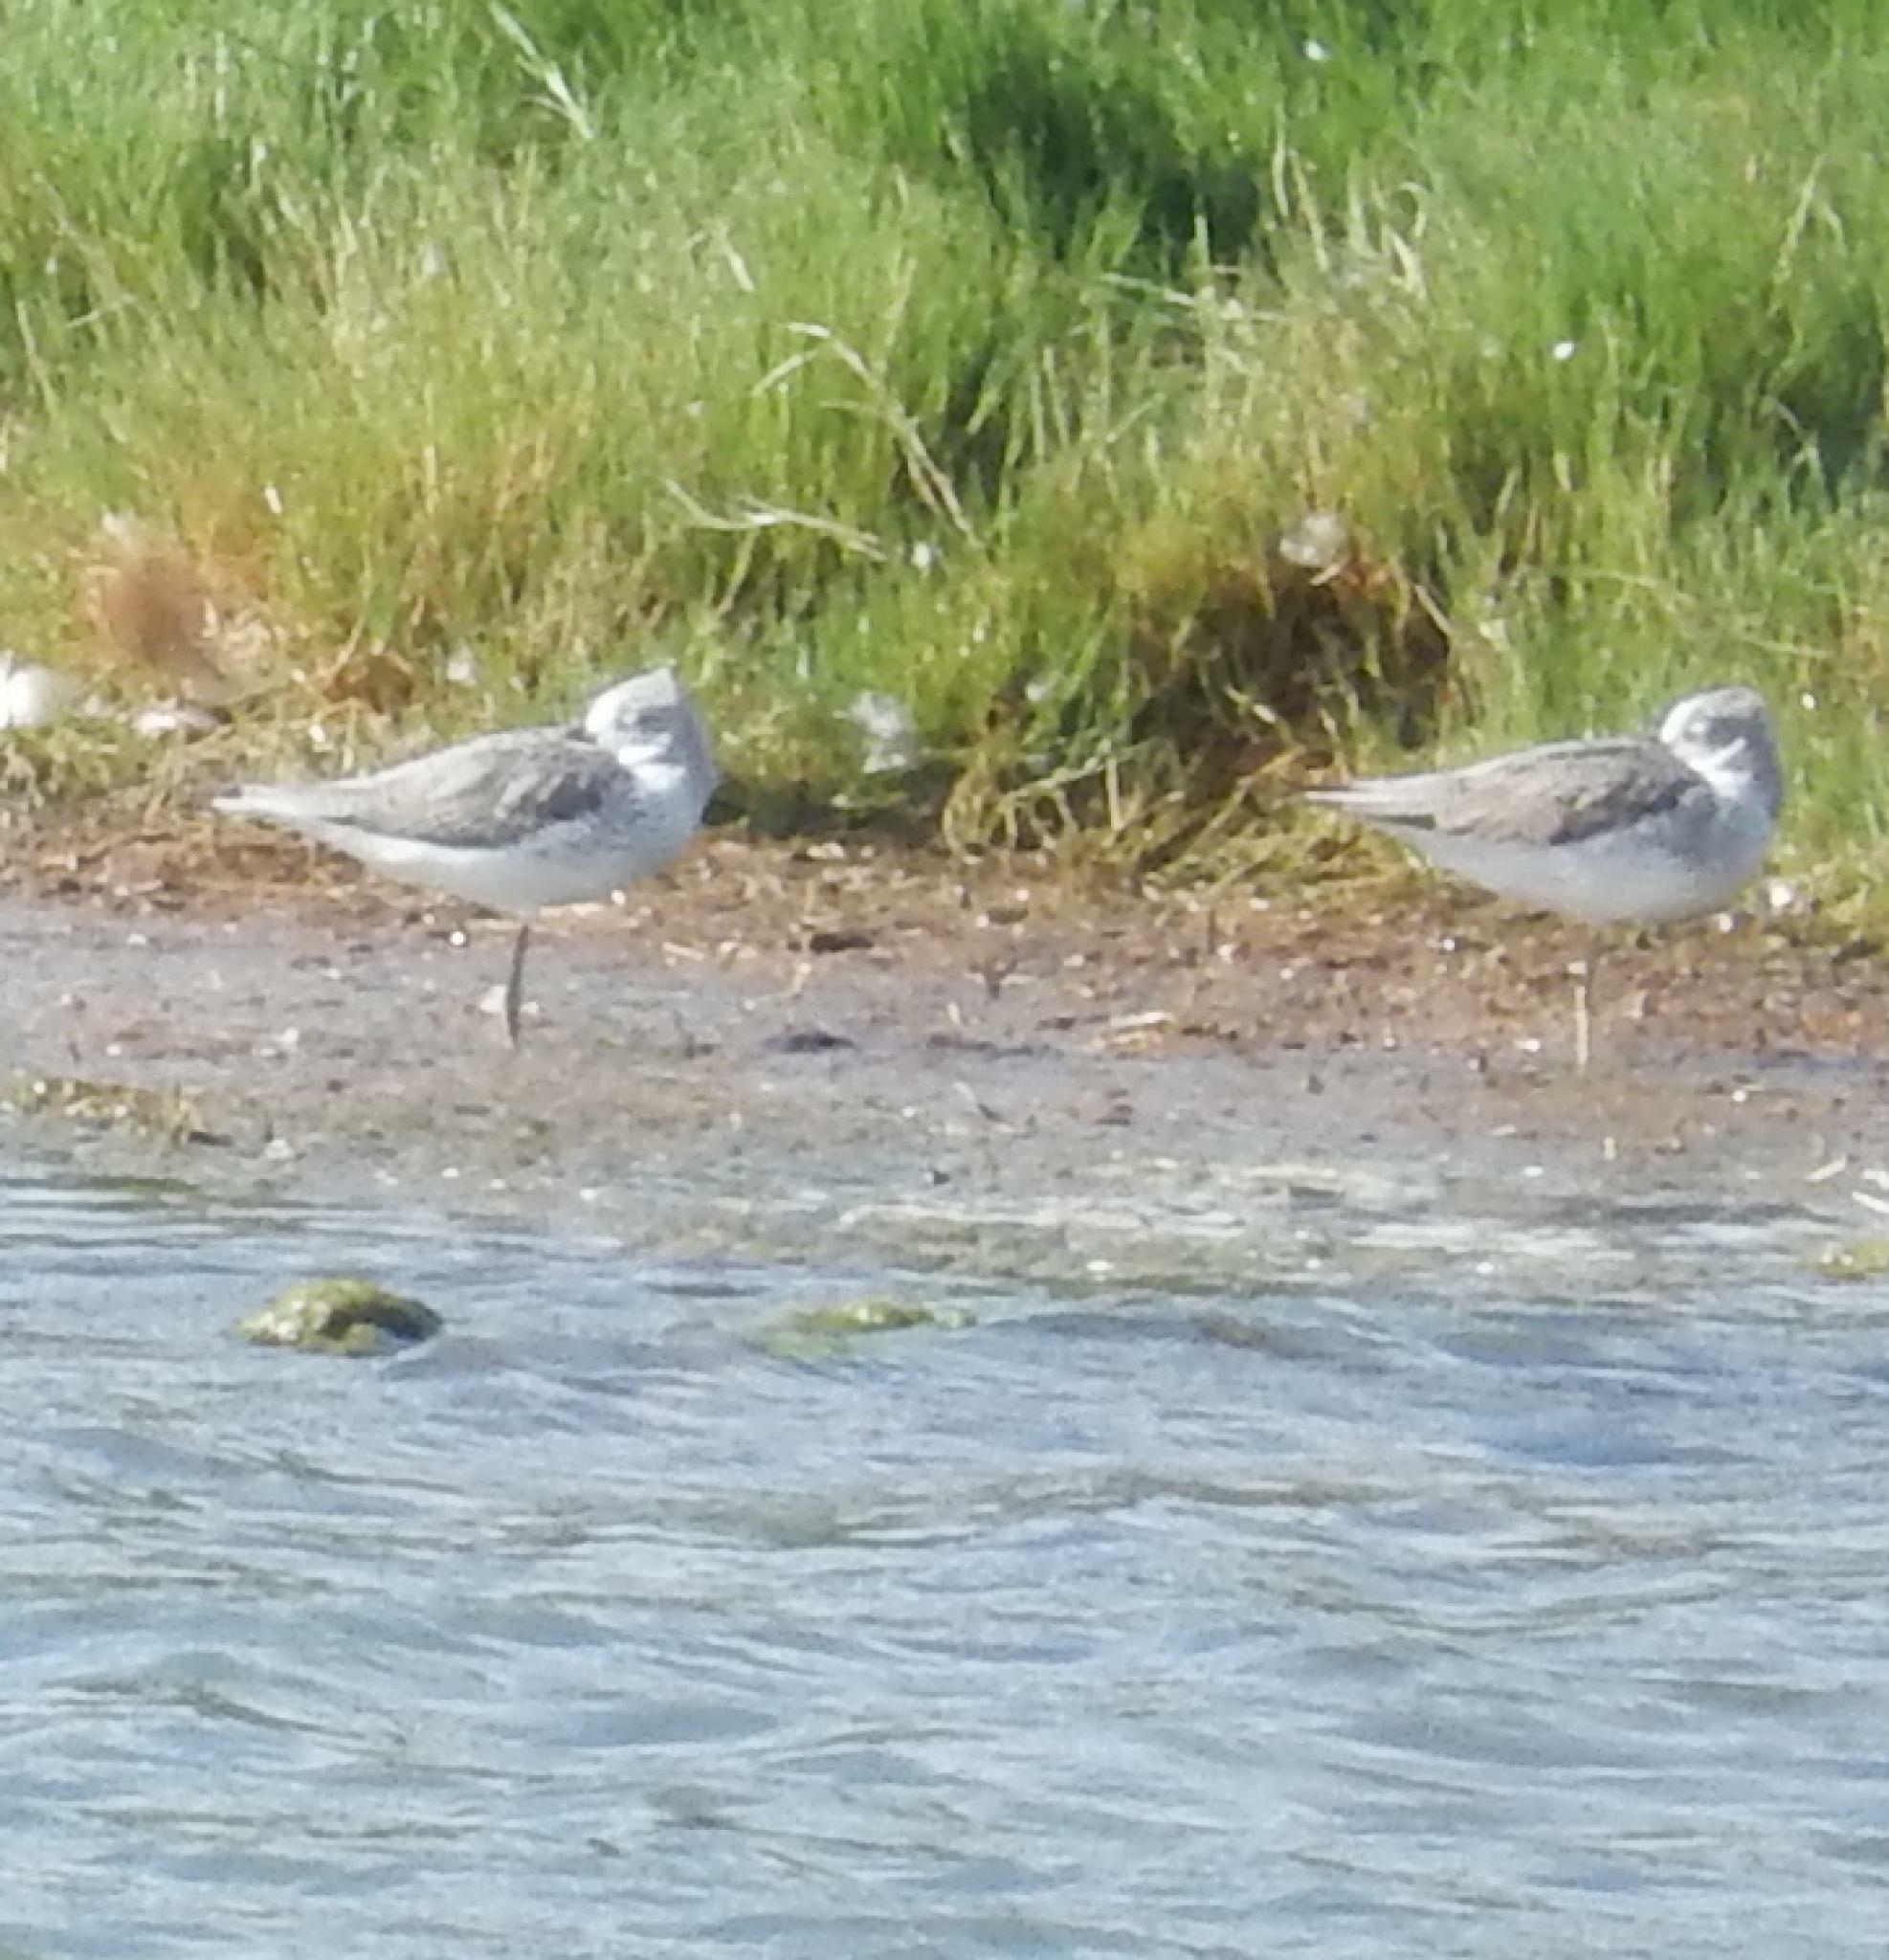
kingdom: Animalia
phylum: Chordata
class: Aves
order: Charadriiformes
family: Scolopacidae
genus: Tringa
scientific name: Tringa nebularia
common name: Common greenshank
